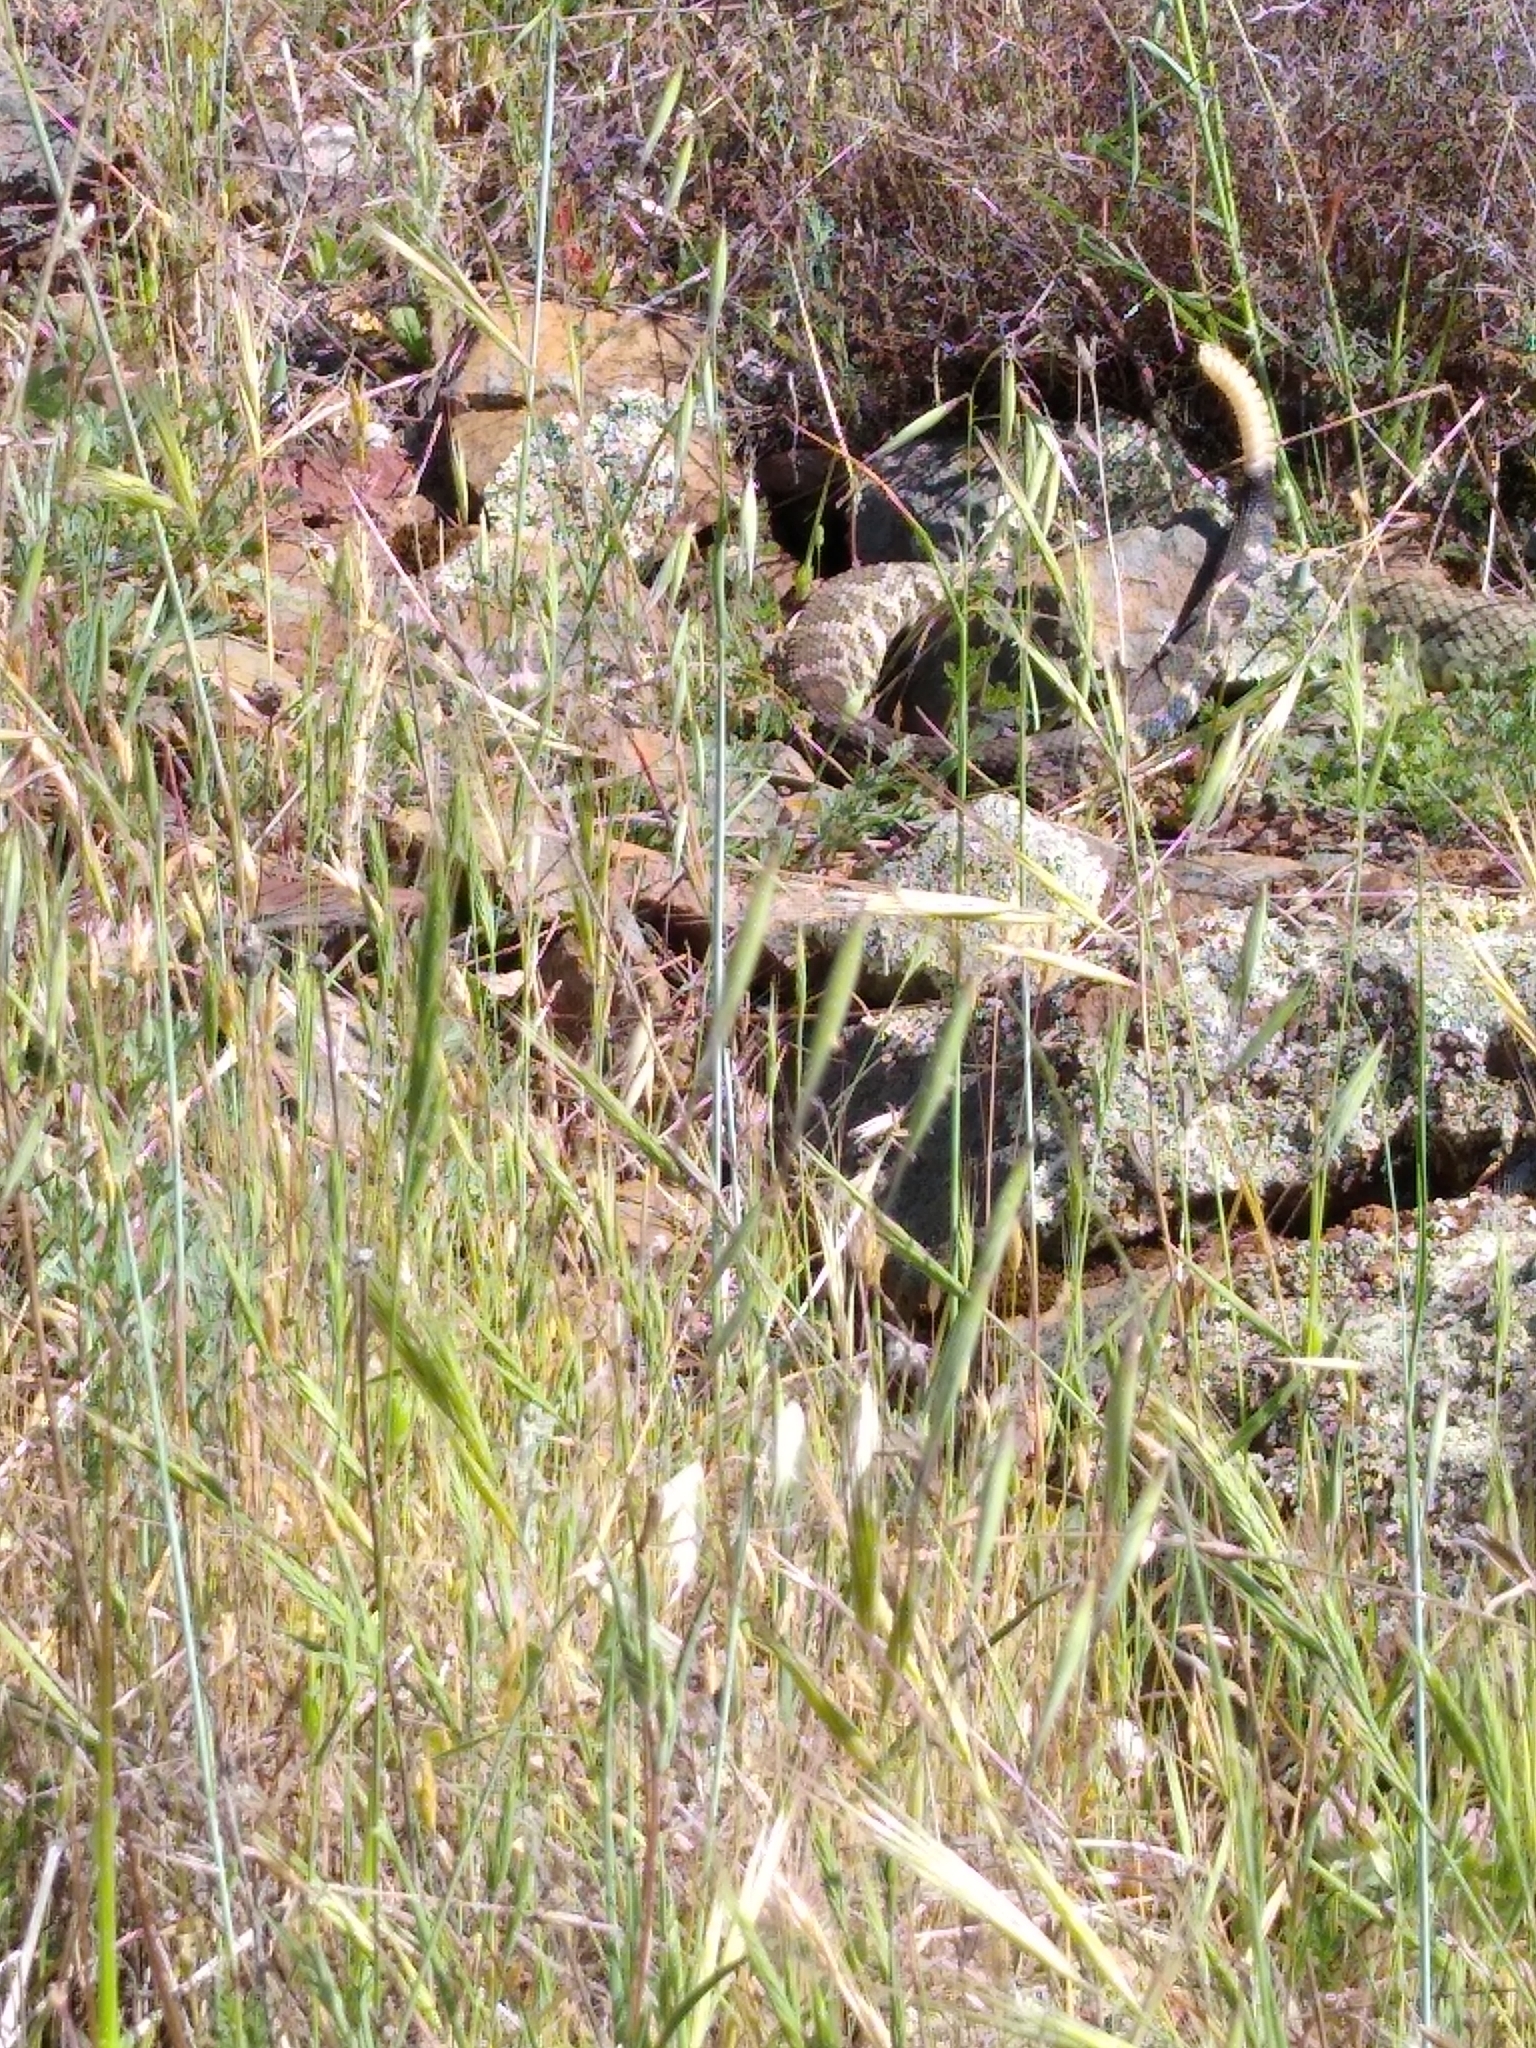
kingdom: Animalia
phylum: Chordata
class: Squamata
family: Viperidae
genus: Crotalus
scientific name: Crotalus oreganus
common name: Abyssus
